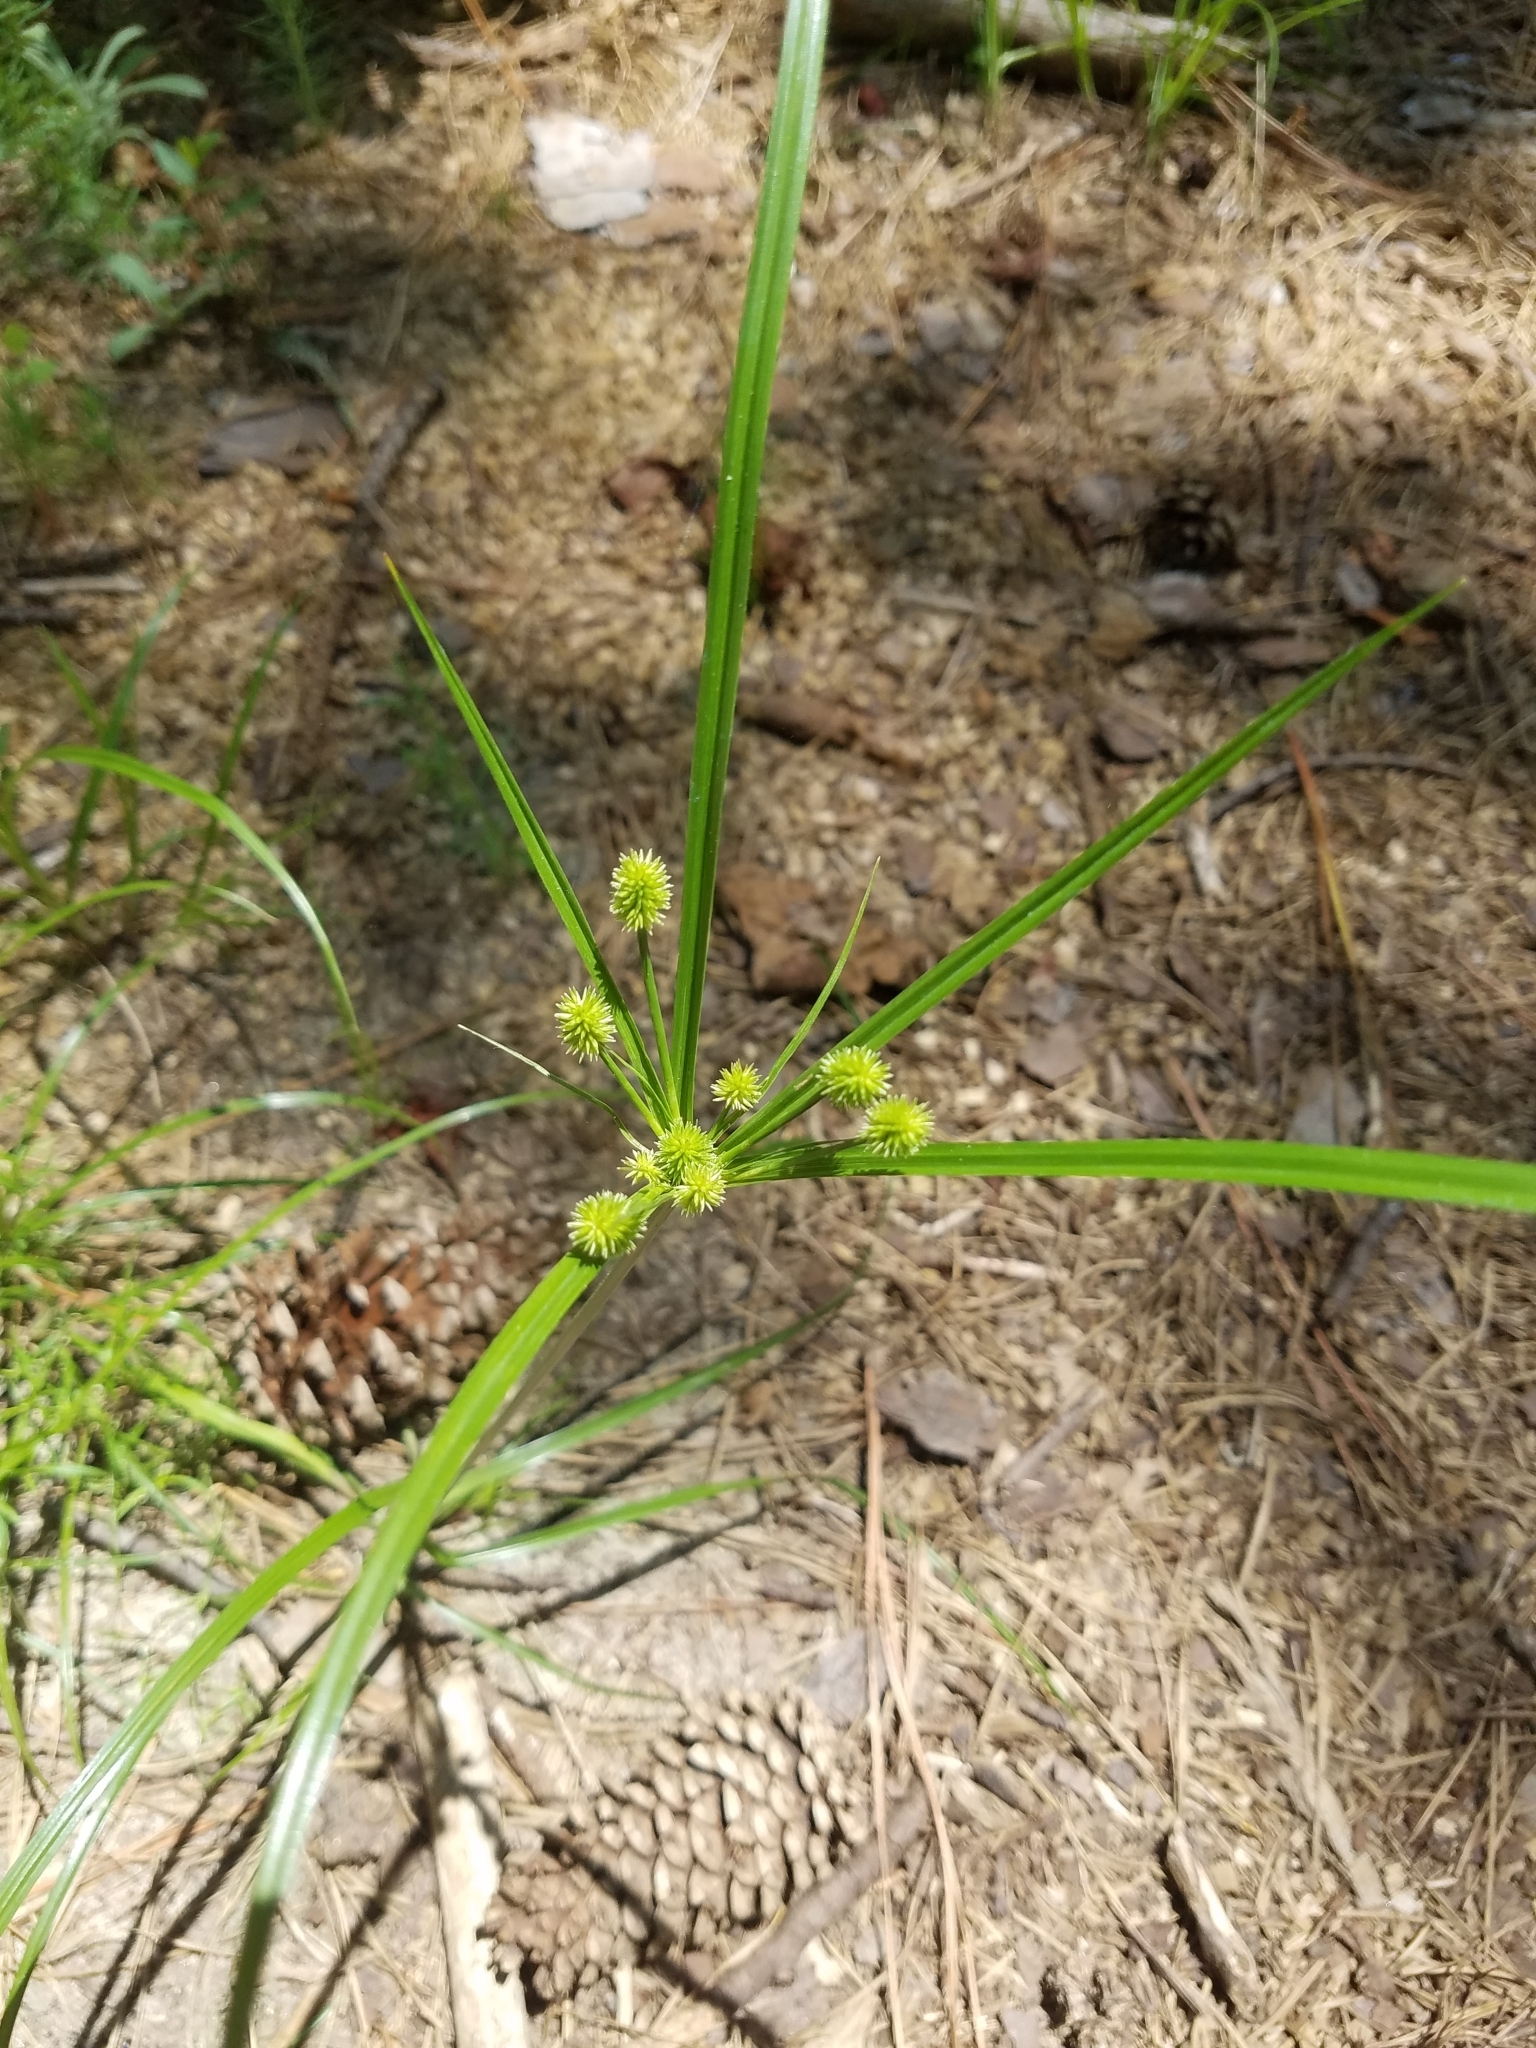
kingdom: Plantae
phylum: Tracheophyta
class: Liliopsida
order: Poales
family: Cyperaceae
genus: Cyperus
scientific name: Cyperus retrorsus
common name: Pinebarren flat sedge
